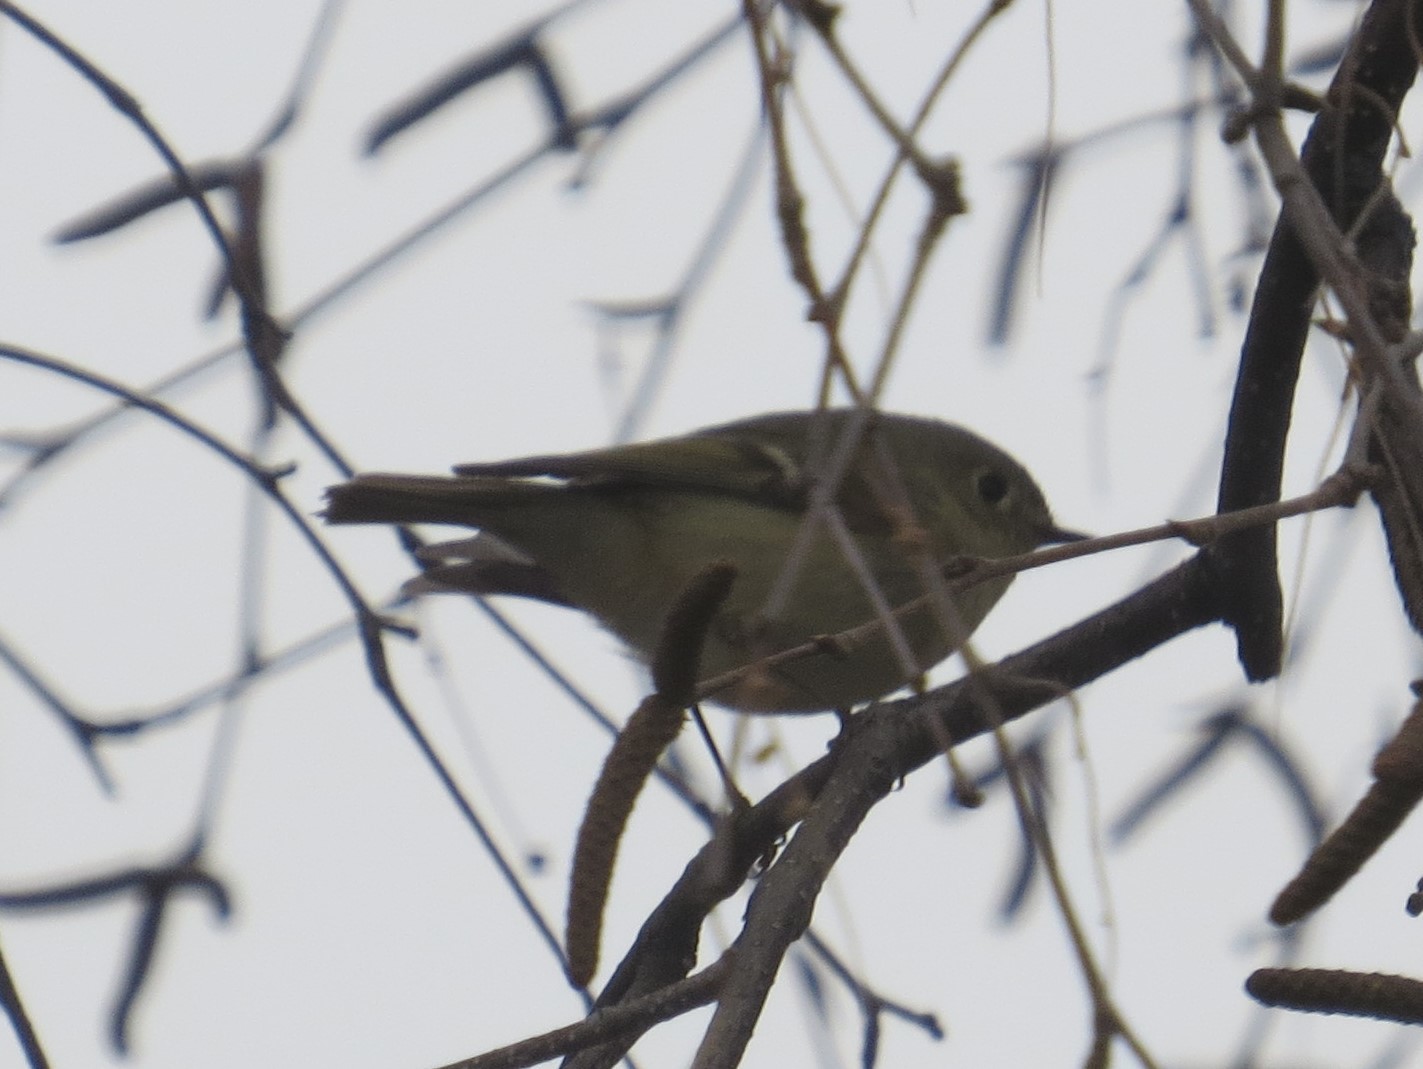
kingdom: Animalia
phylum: Chordata
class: Aves
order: Passeriformes
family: Regulidae
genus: Regulus
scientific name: Regulus calendula
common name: Ruby-crowned kinglet
